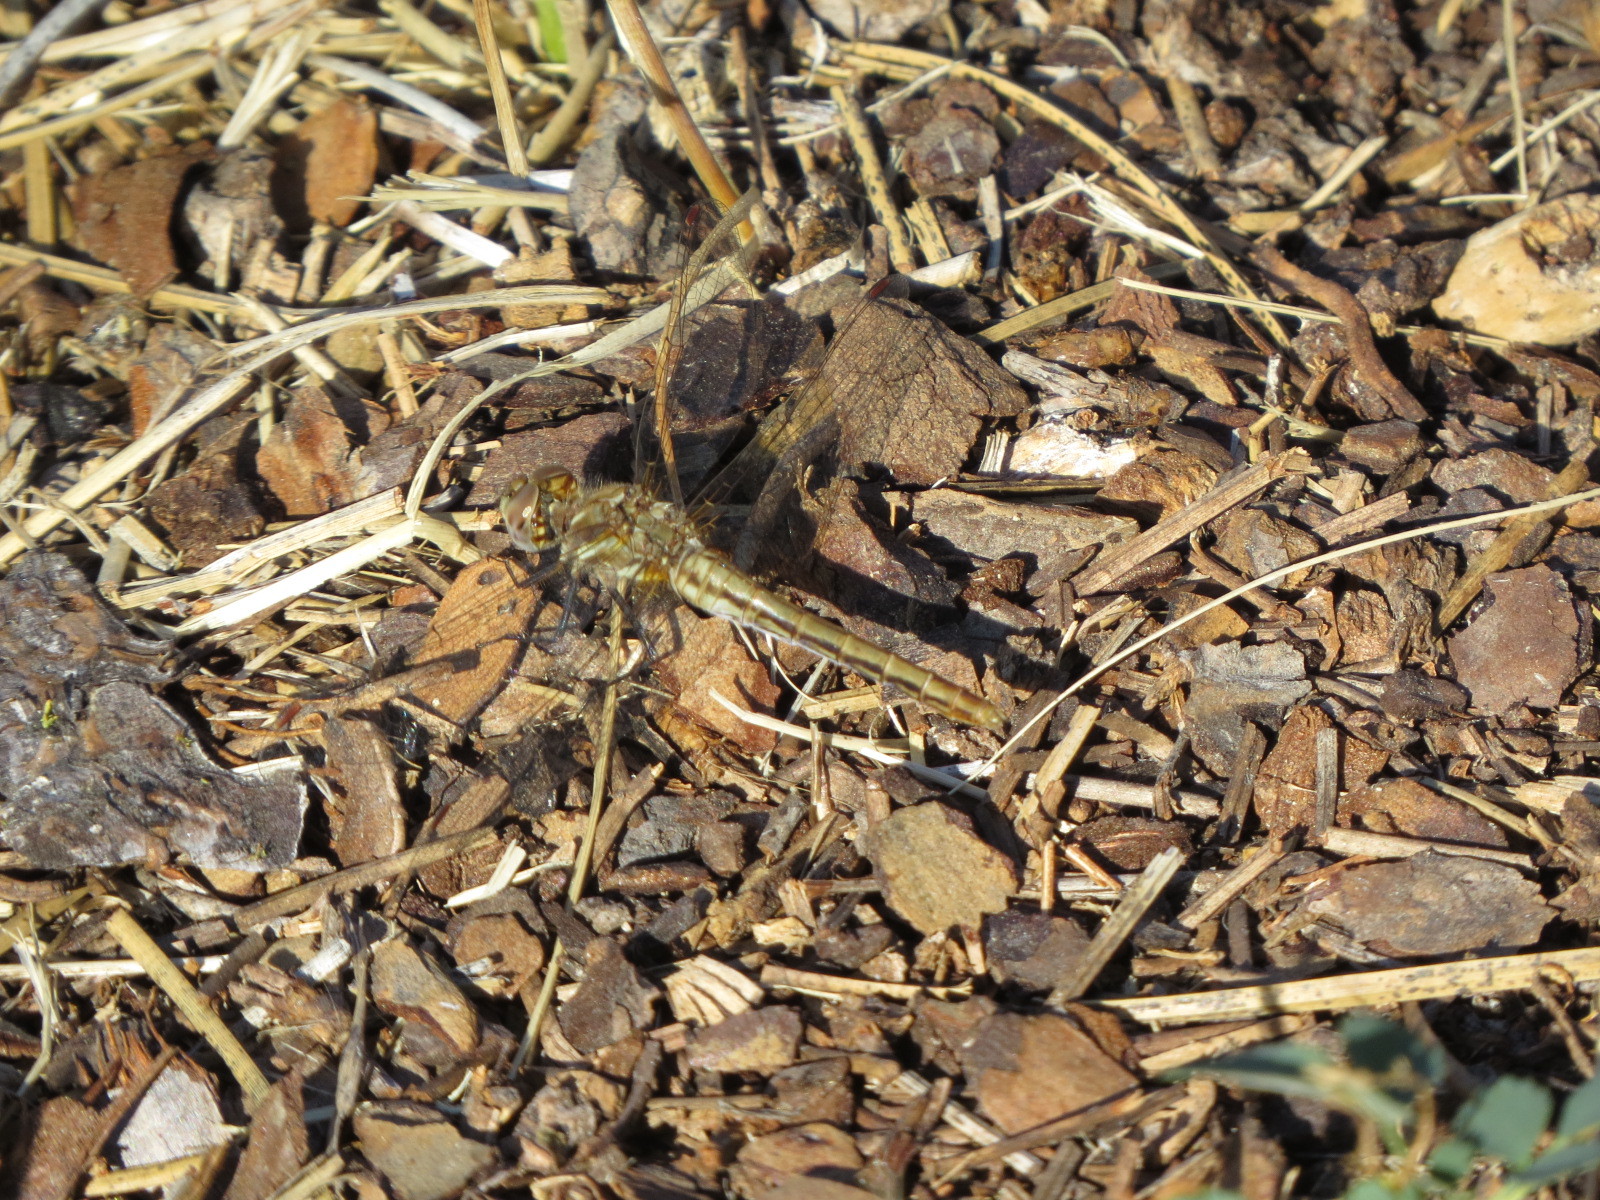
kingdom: Animalia
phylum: Arthropoda
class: Insecta
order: Odonata
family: Libellulidae
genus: Sympetrum
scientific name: Sympetrum pallipes
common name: Striped meadowhawk
